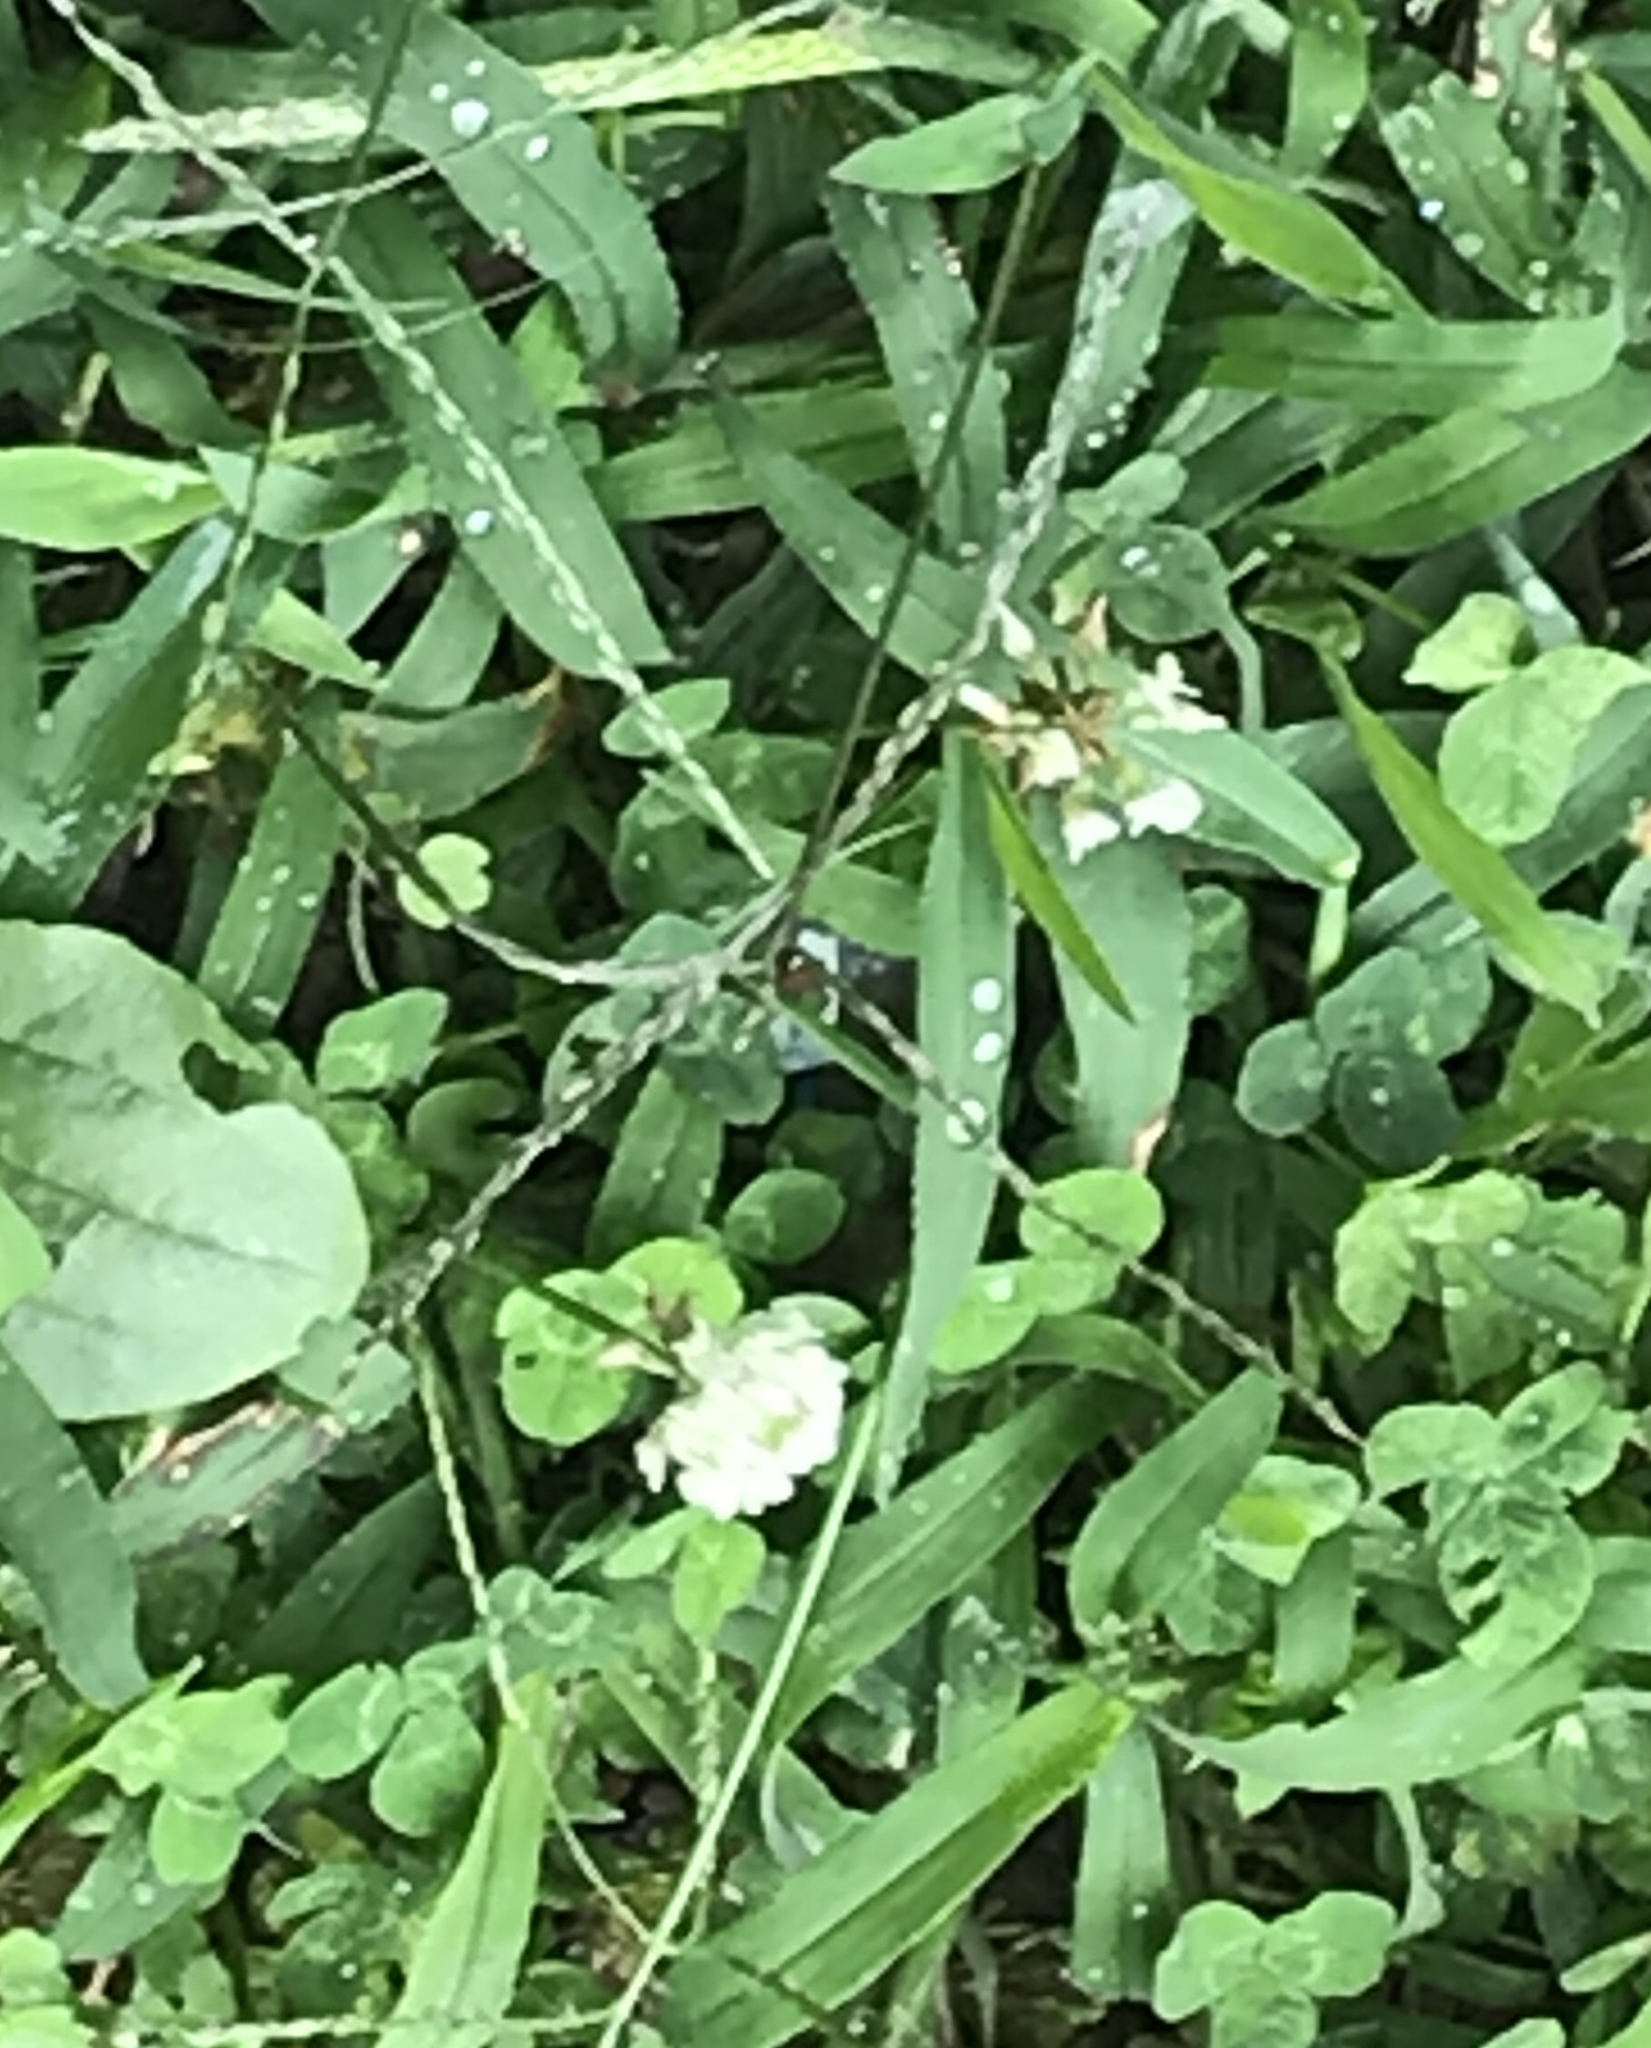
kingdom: Plantae
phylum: Tracheophyta
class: Magnoliopsida
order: Fabales
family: Fabaceae
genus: Trifolium
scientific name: Trifolium repens
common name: White clover
